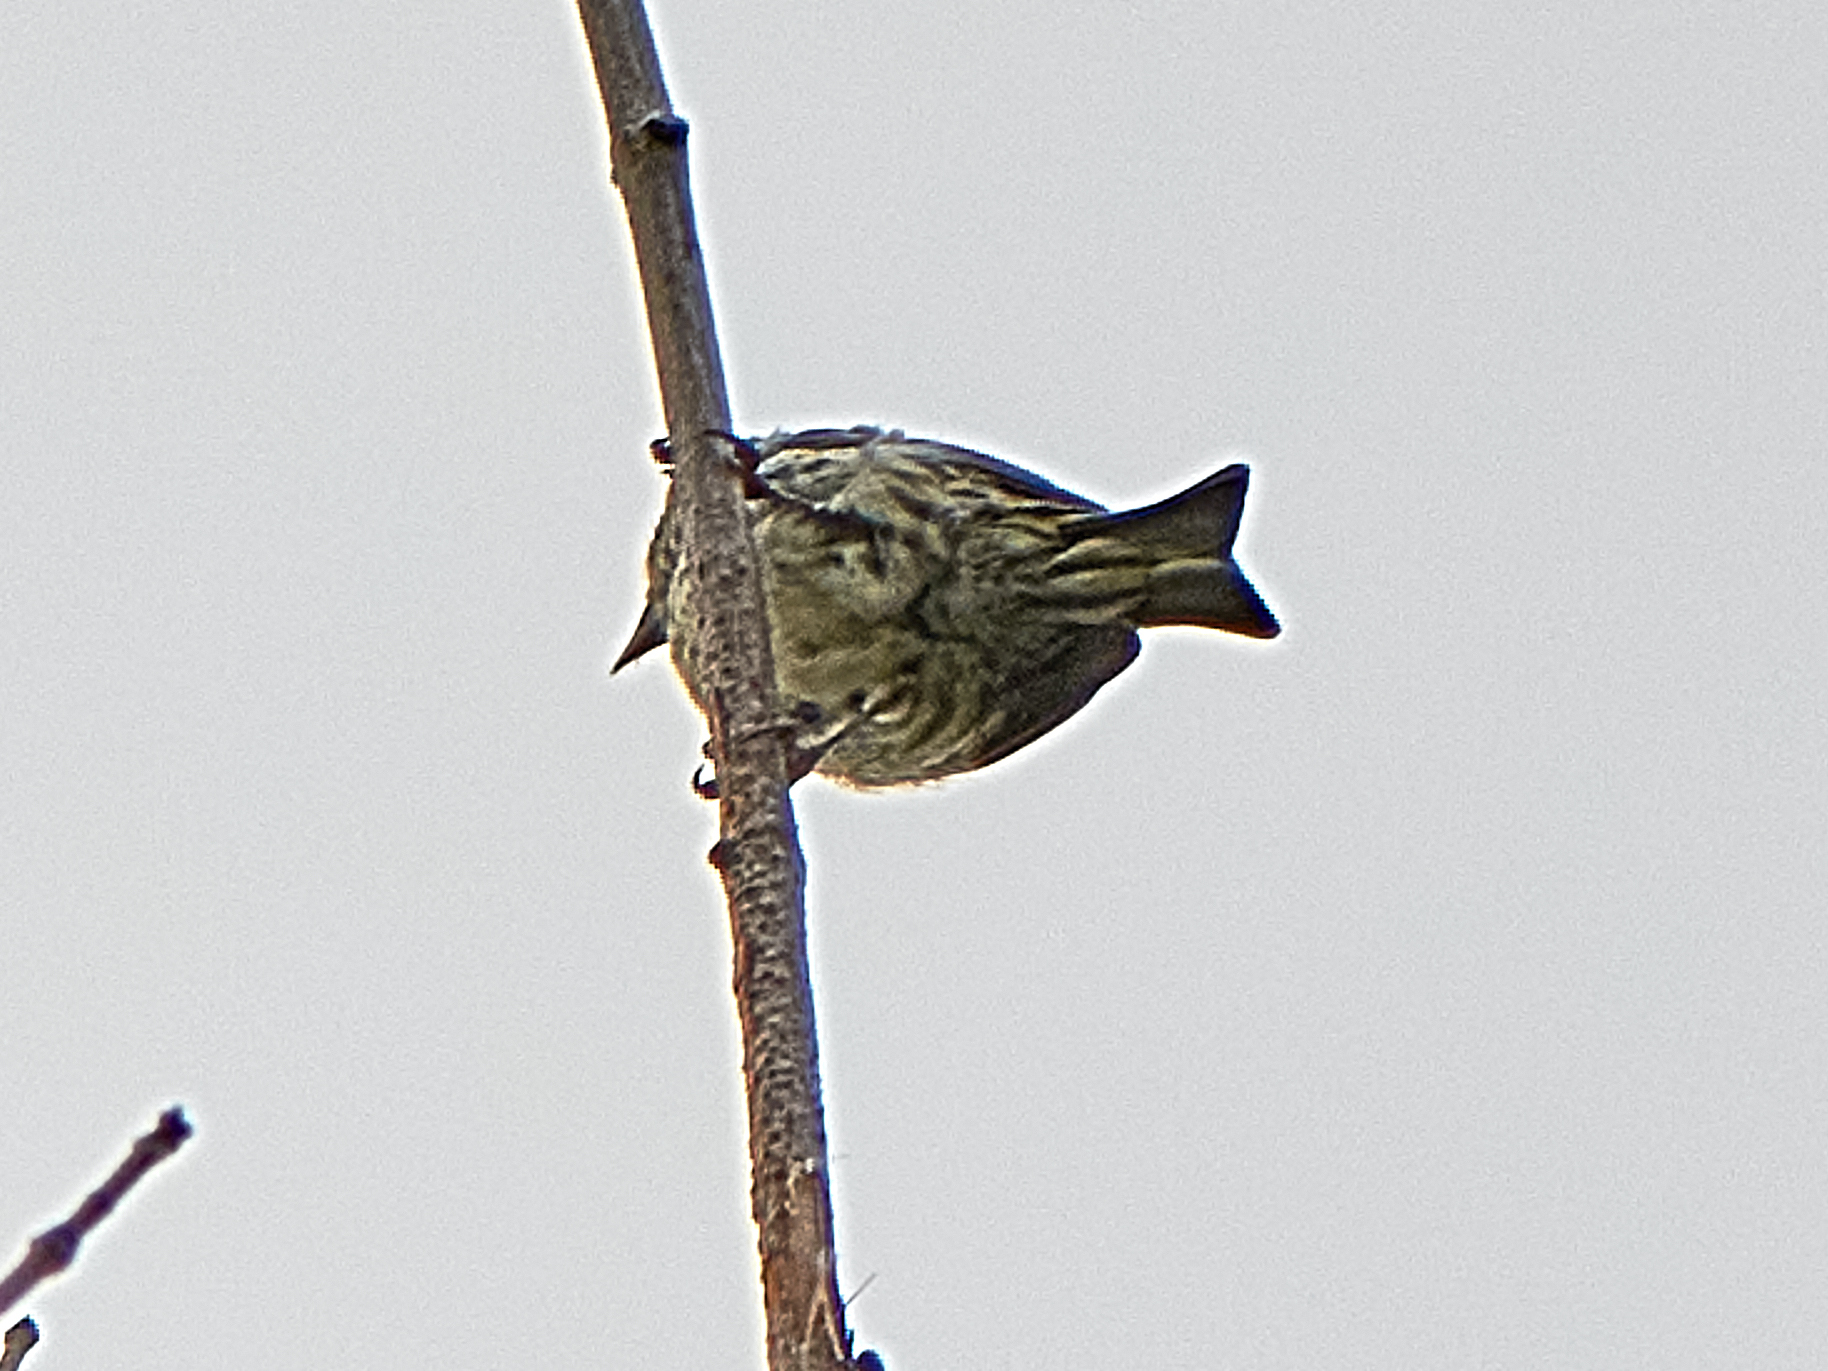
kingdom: Animalia
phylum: Chordata
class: Aves
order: Passeriformes
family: Fringillidae
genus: Spinus
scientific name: Spinus spinus
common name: Eurasian siskin
